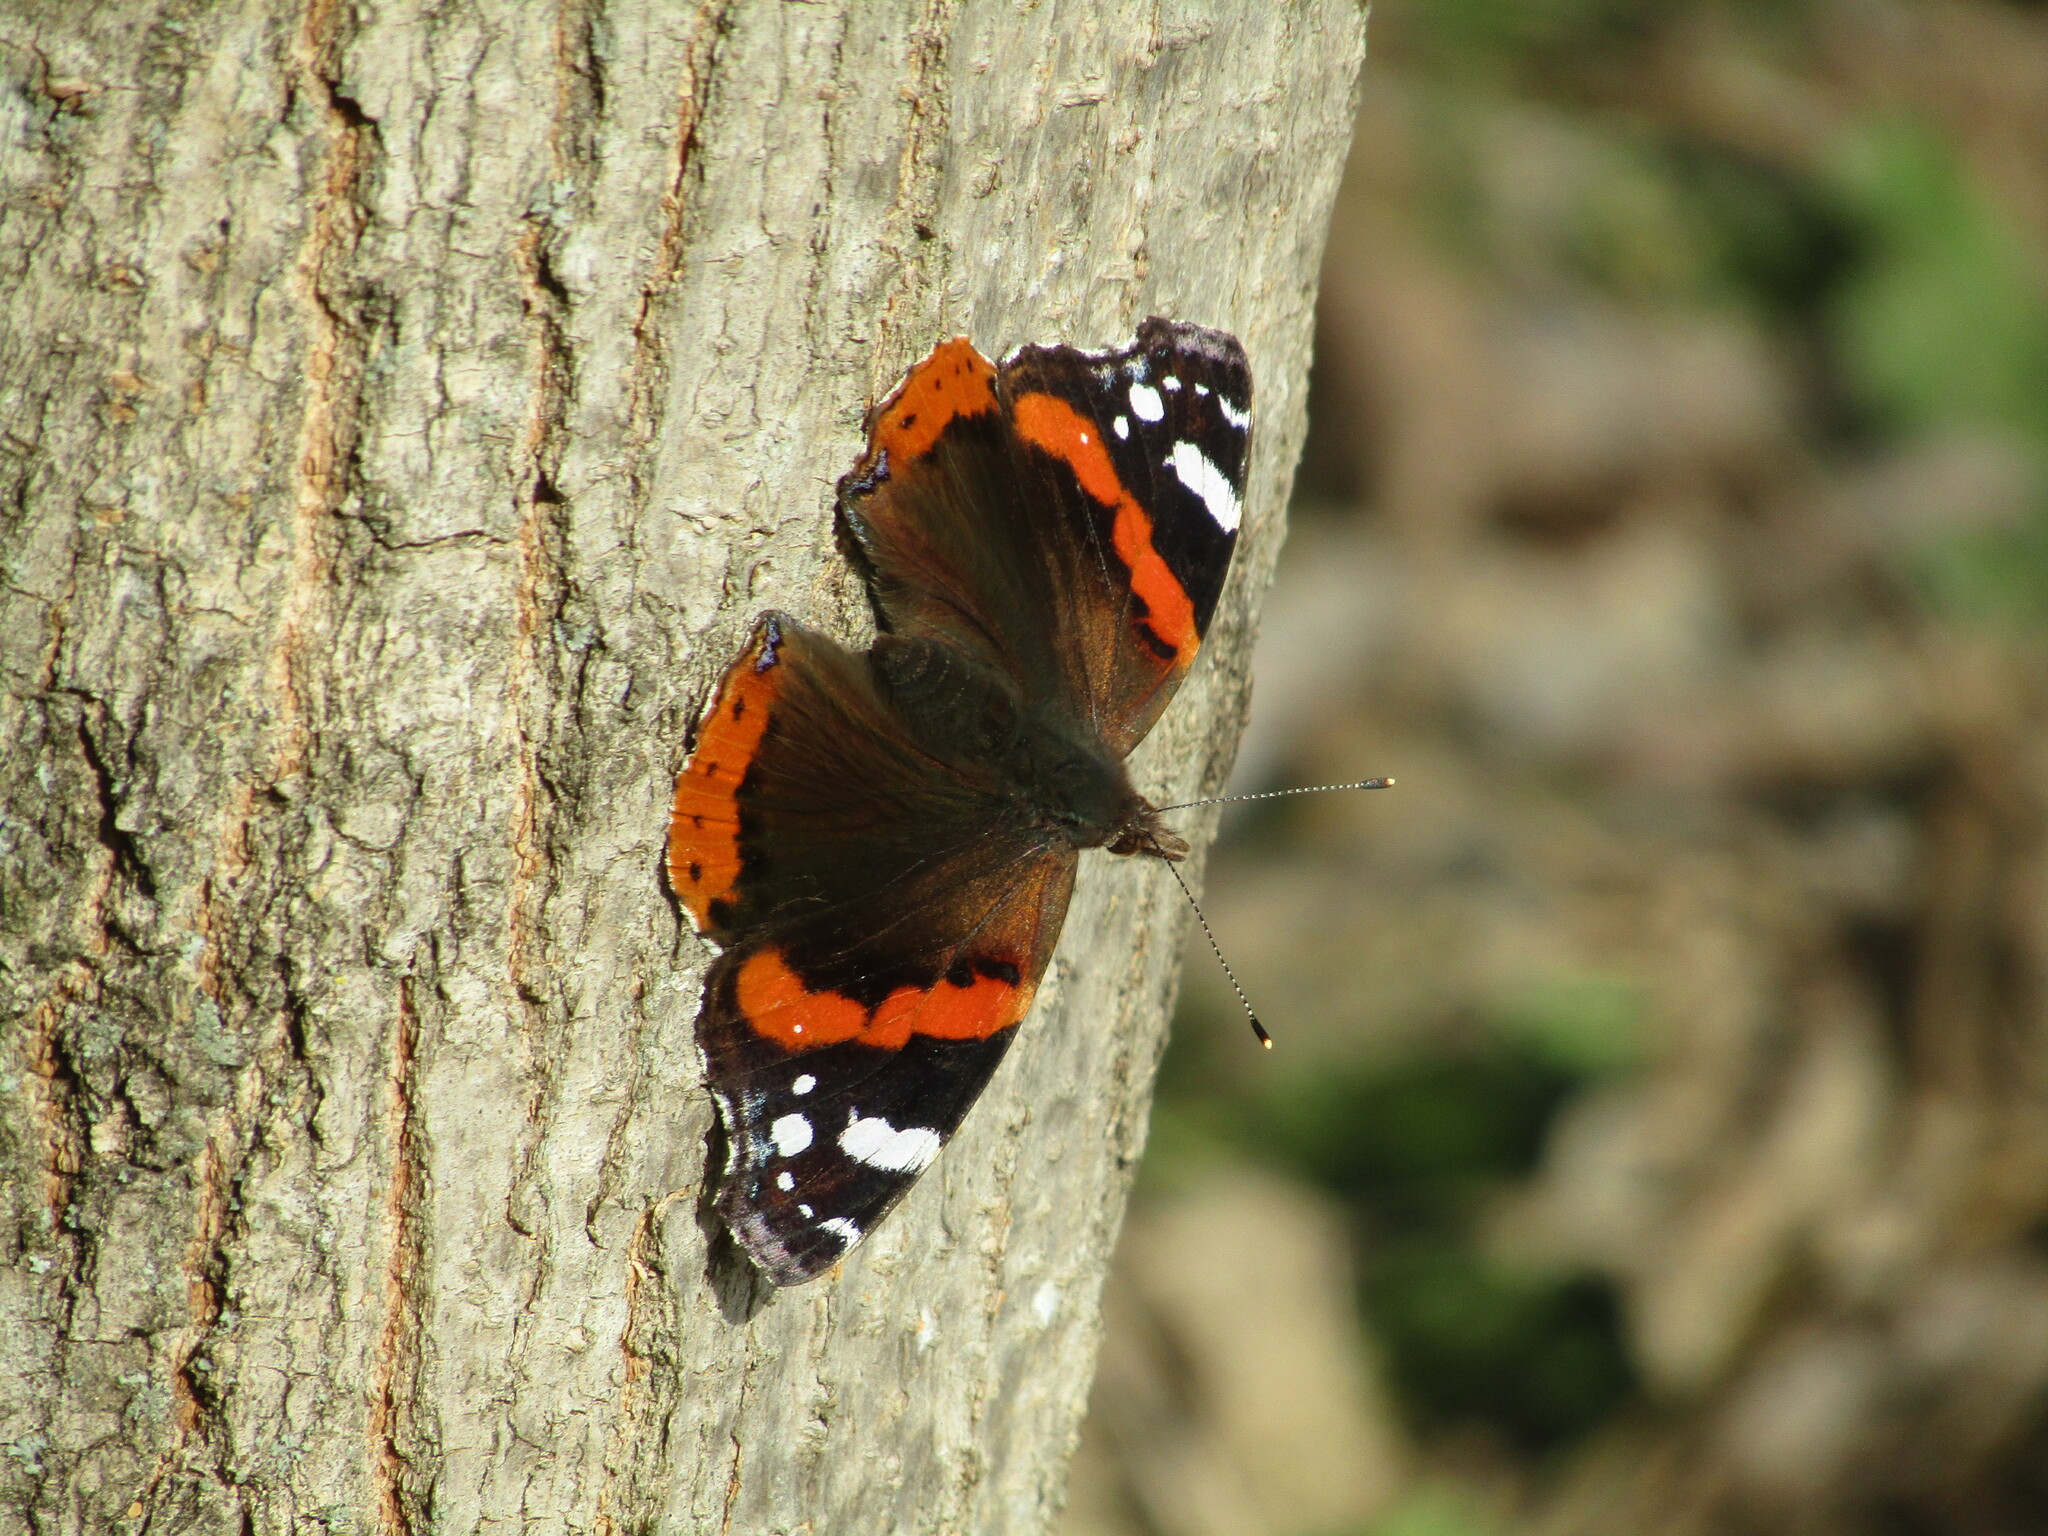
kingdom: Animalia
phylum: Arthropoda
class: Insecta
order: Lepidoptera
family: Nymphalidae
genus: Vanessa
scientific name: Vanessa atalanta
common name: Red admiral
